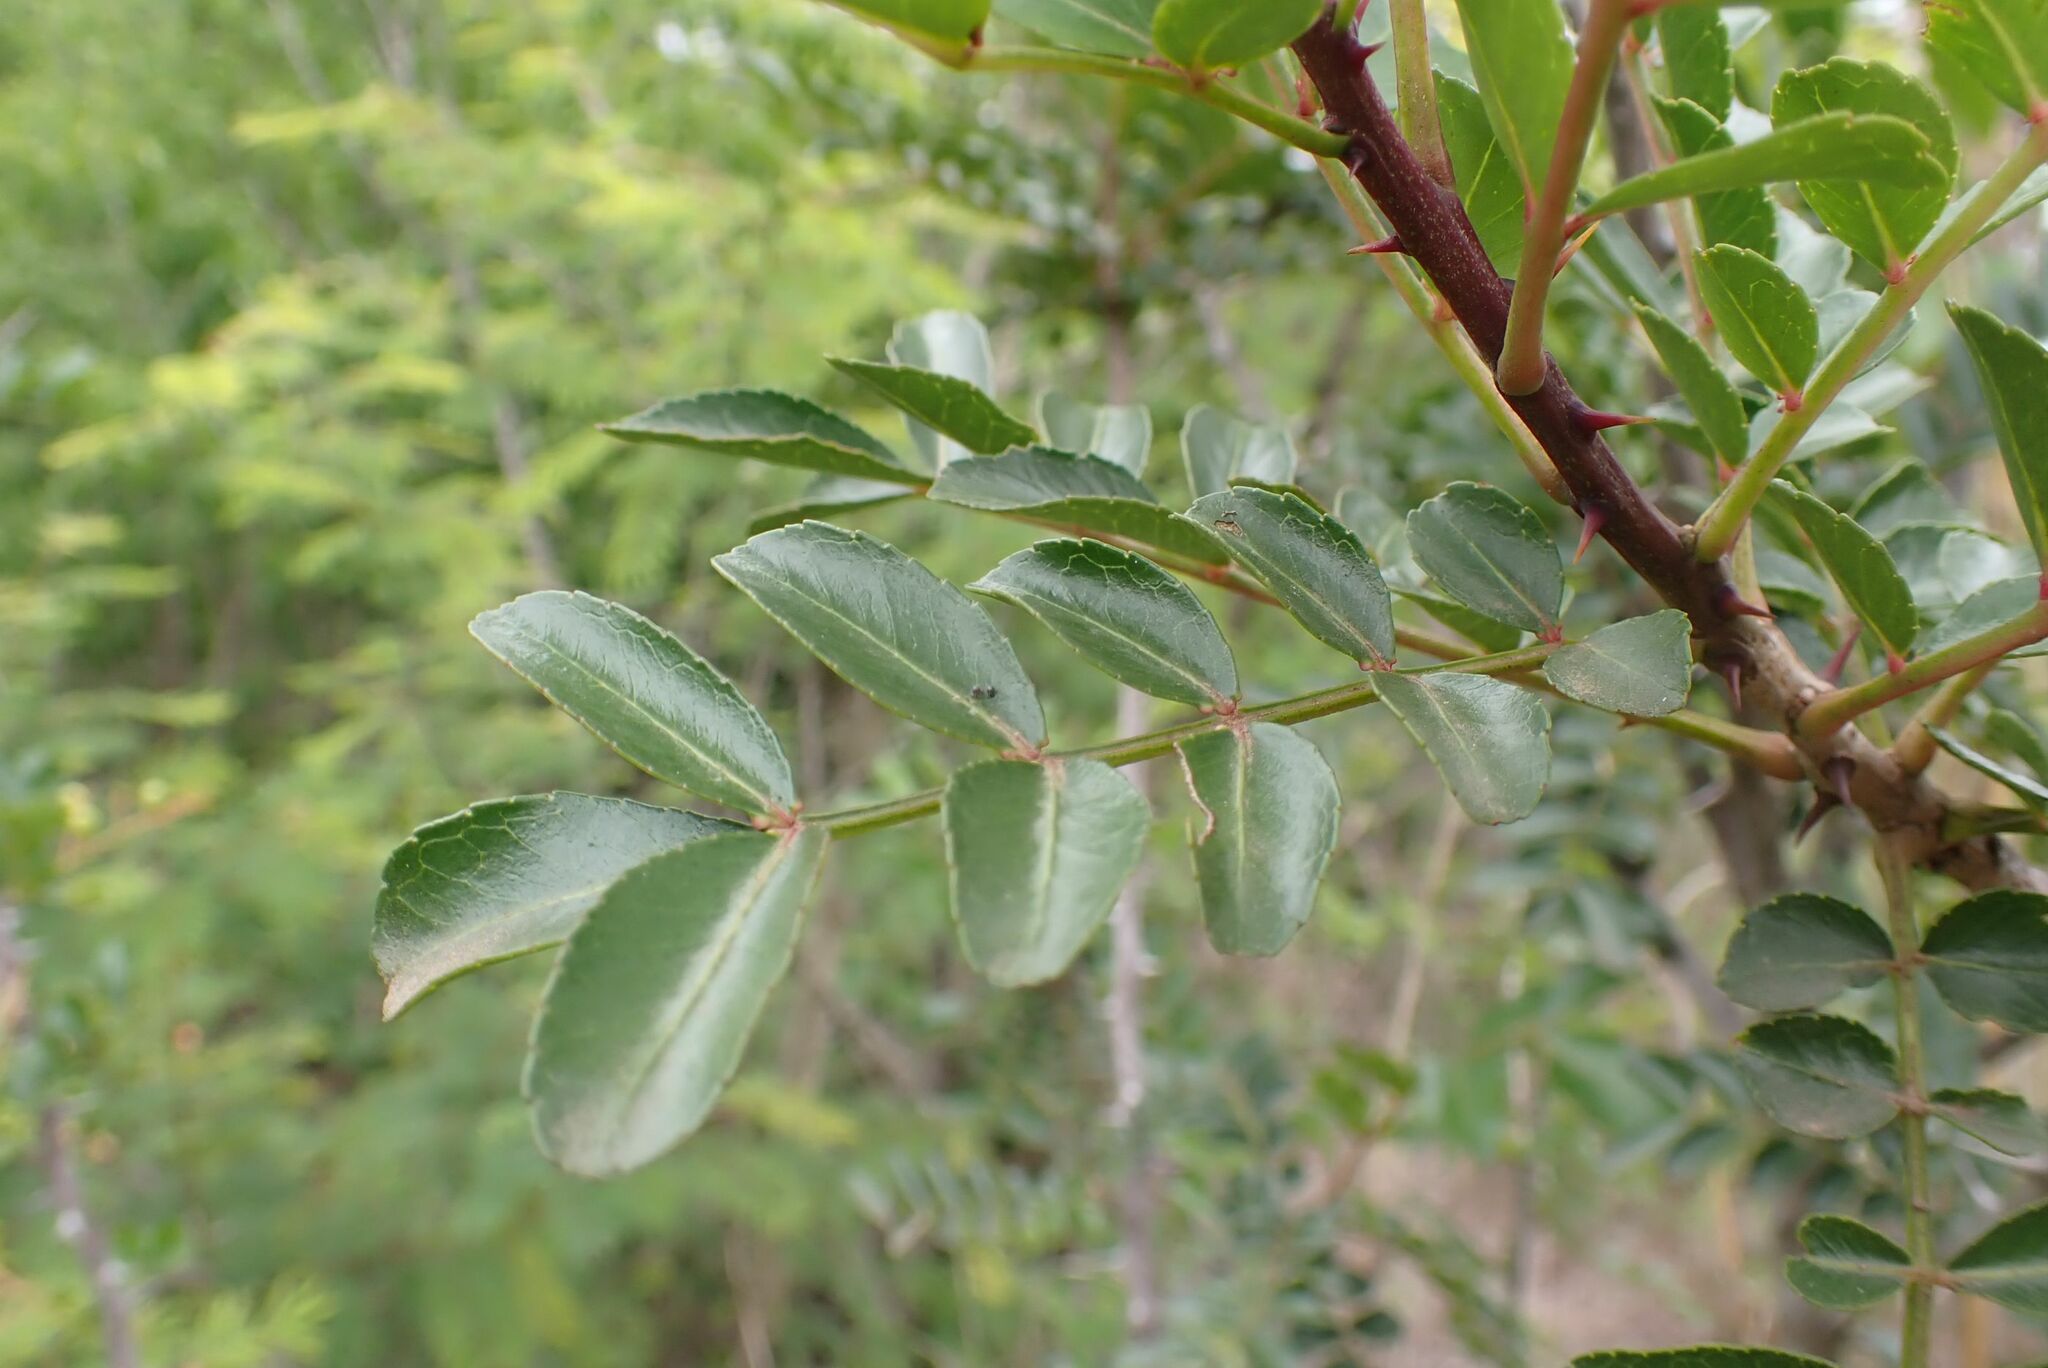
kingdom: Plantae
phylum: Tracheophyta
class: Magnoliopsida
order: Sapindales
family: Rutaceae
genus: Zanthoxylum
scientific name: Zanthoxylum capense
